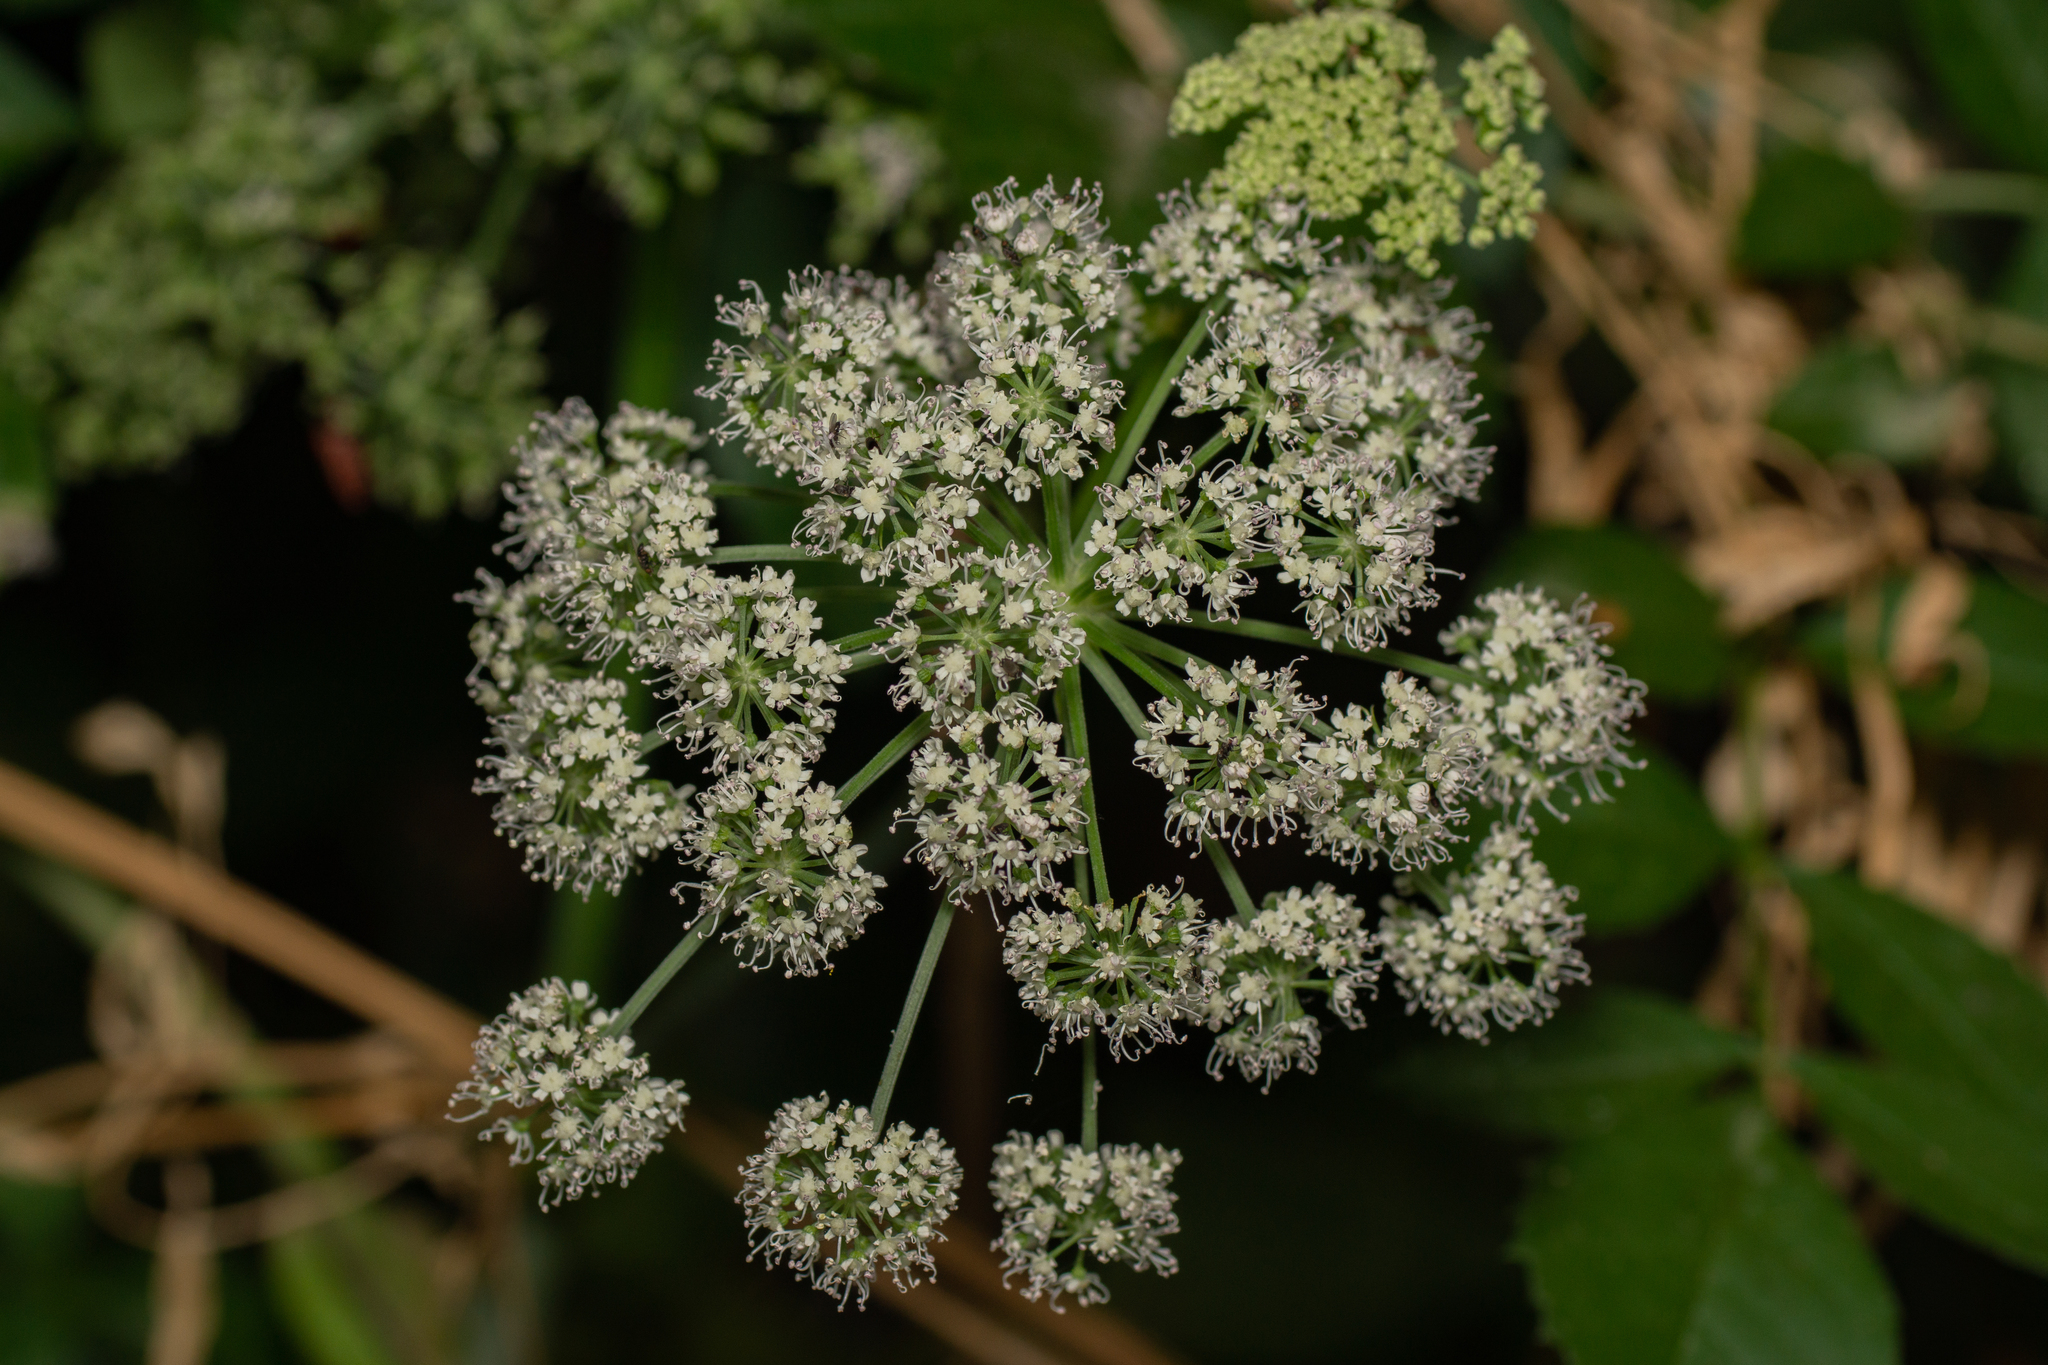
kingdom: Plantae
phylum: Tracheophyta
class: Magnoliopsida
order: Apiales
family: Apiaceae
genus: Angelica
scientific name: Angelica sylvestris
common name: Wild angelica
